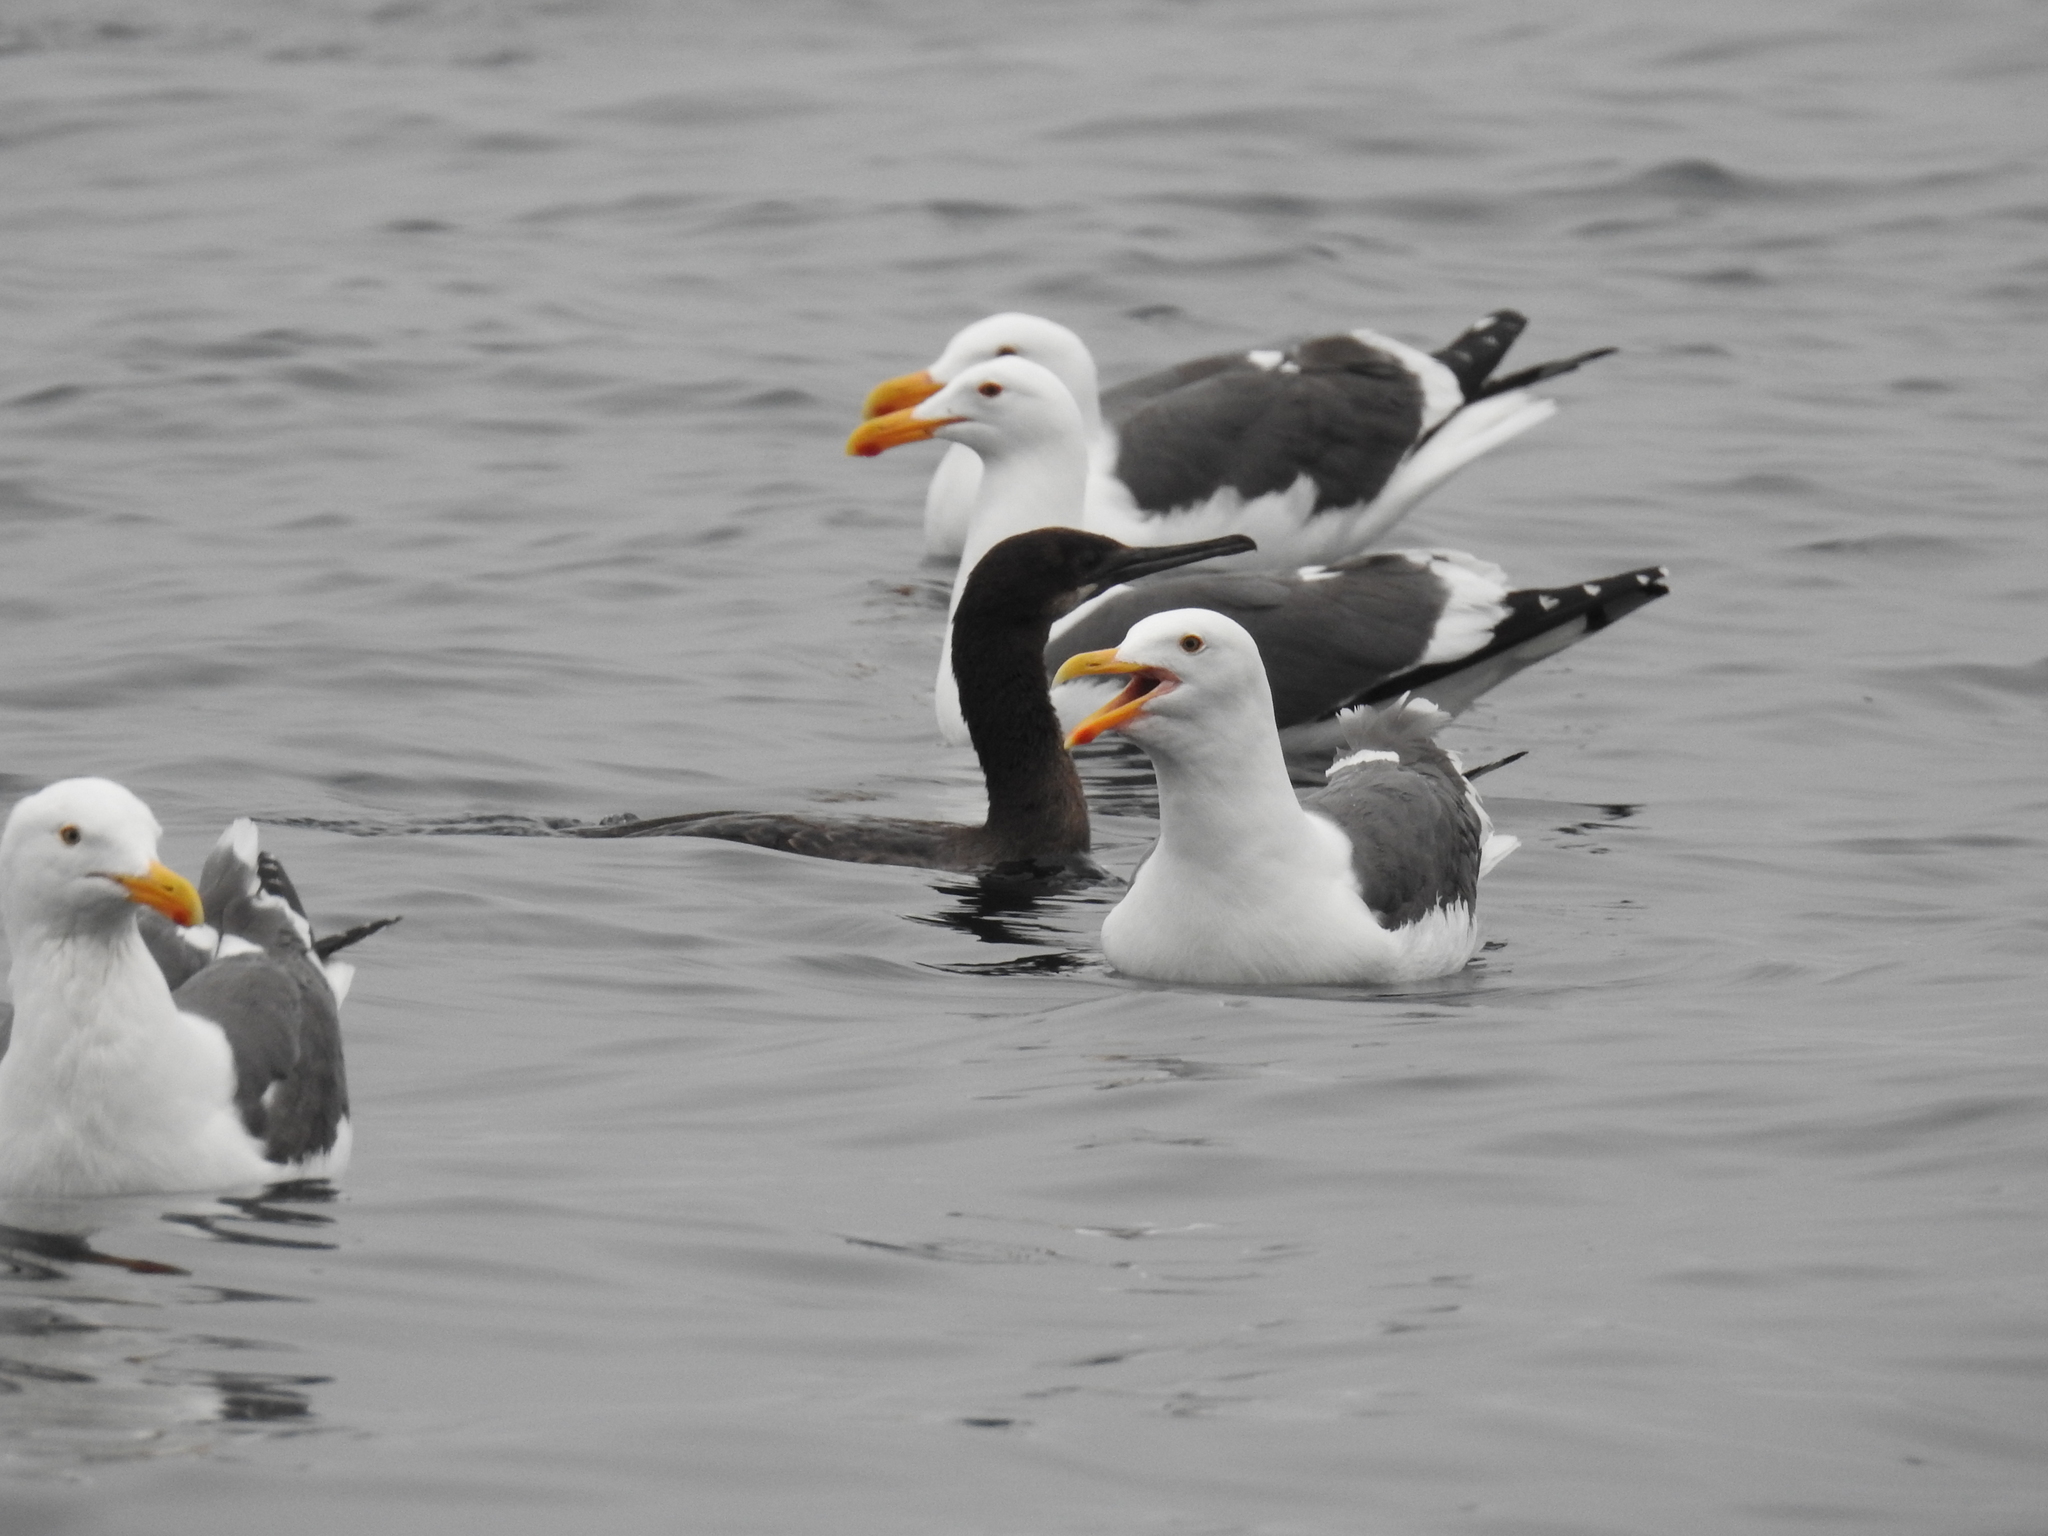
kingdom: Animalia
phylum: Chordata
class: Aves
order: Suliformes
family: Phalacrocoracidae
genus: Urile
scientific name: Urile penicillatus
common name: Brandt's cormorant
